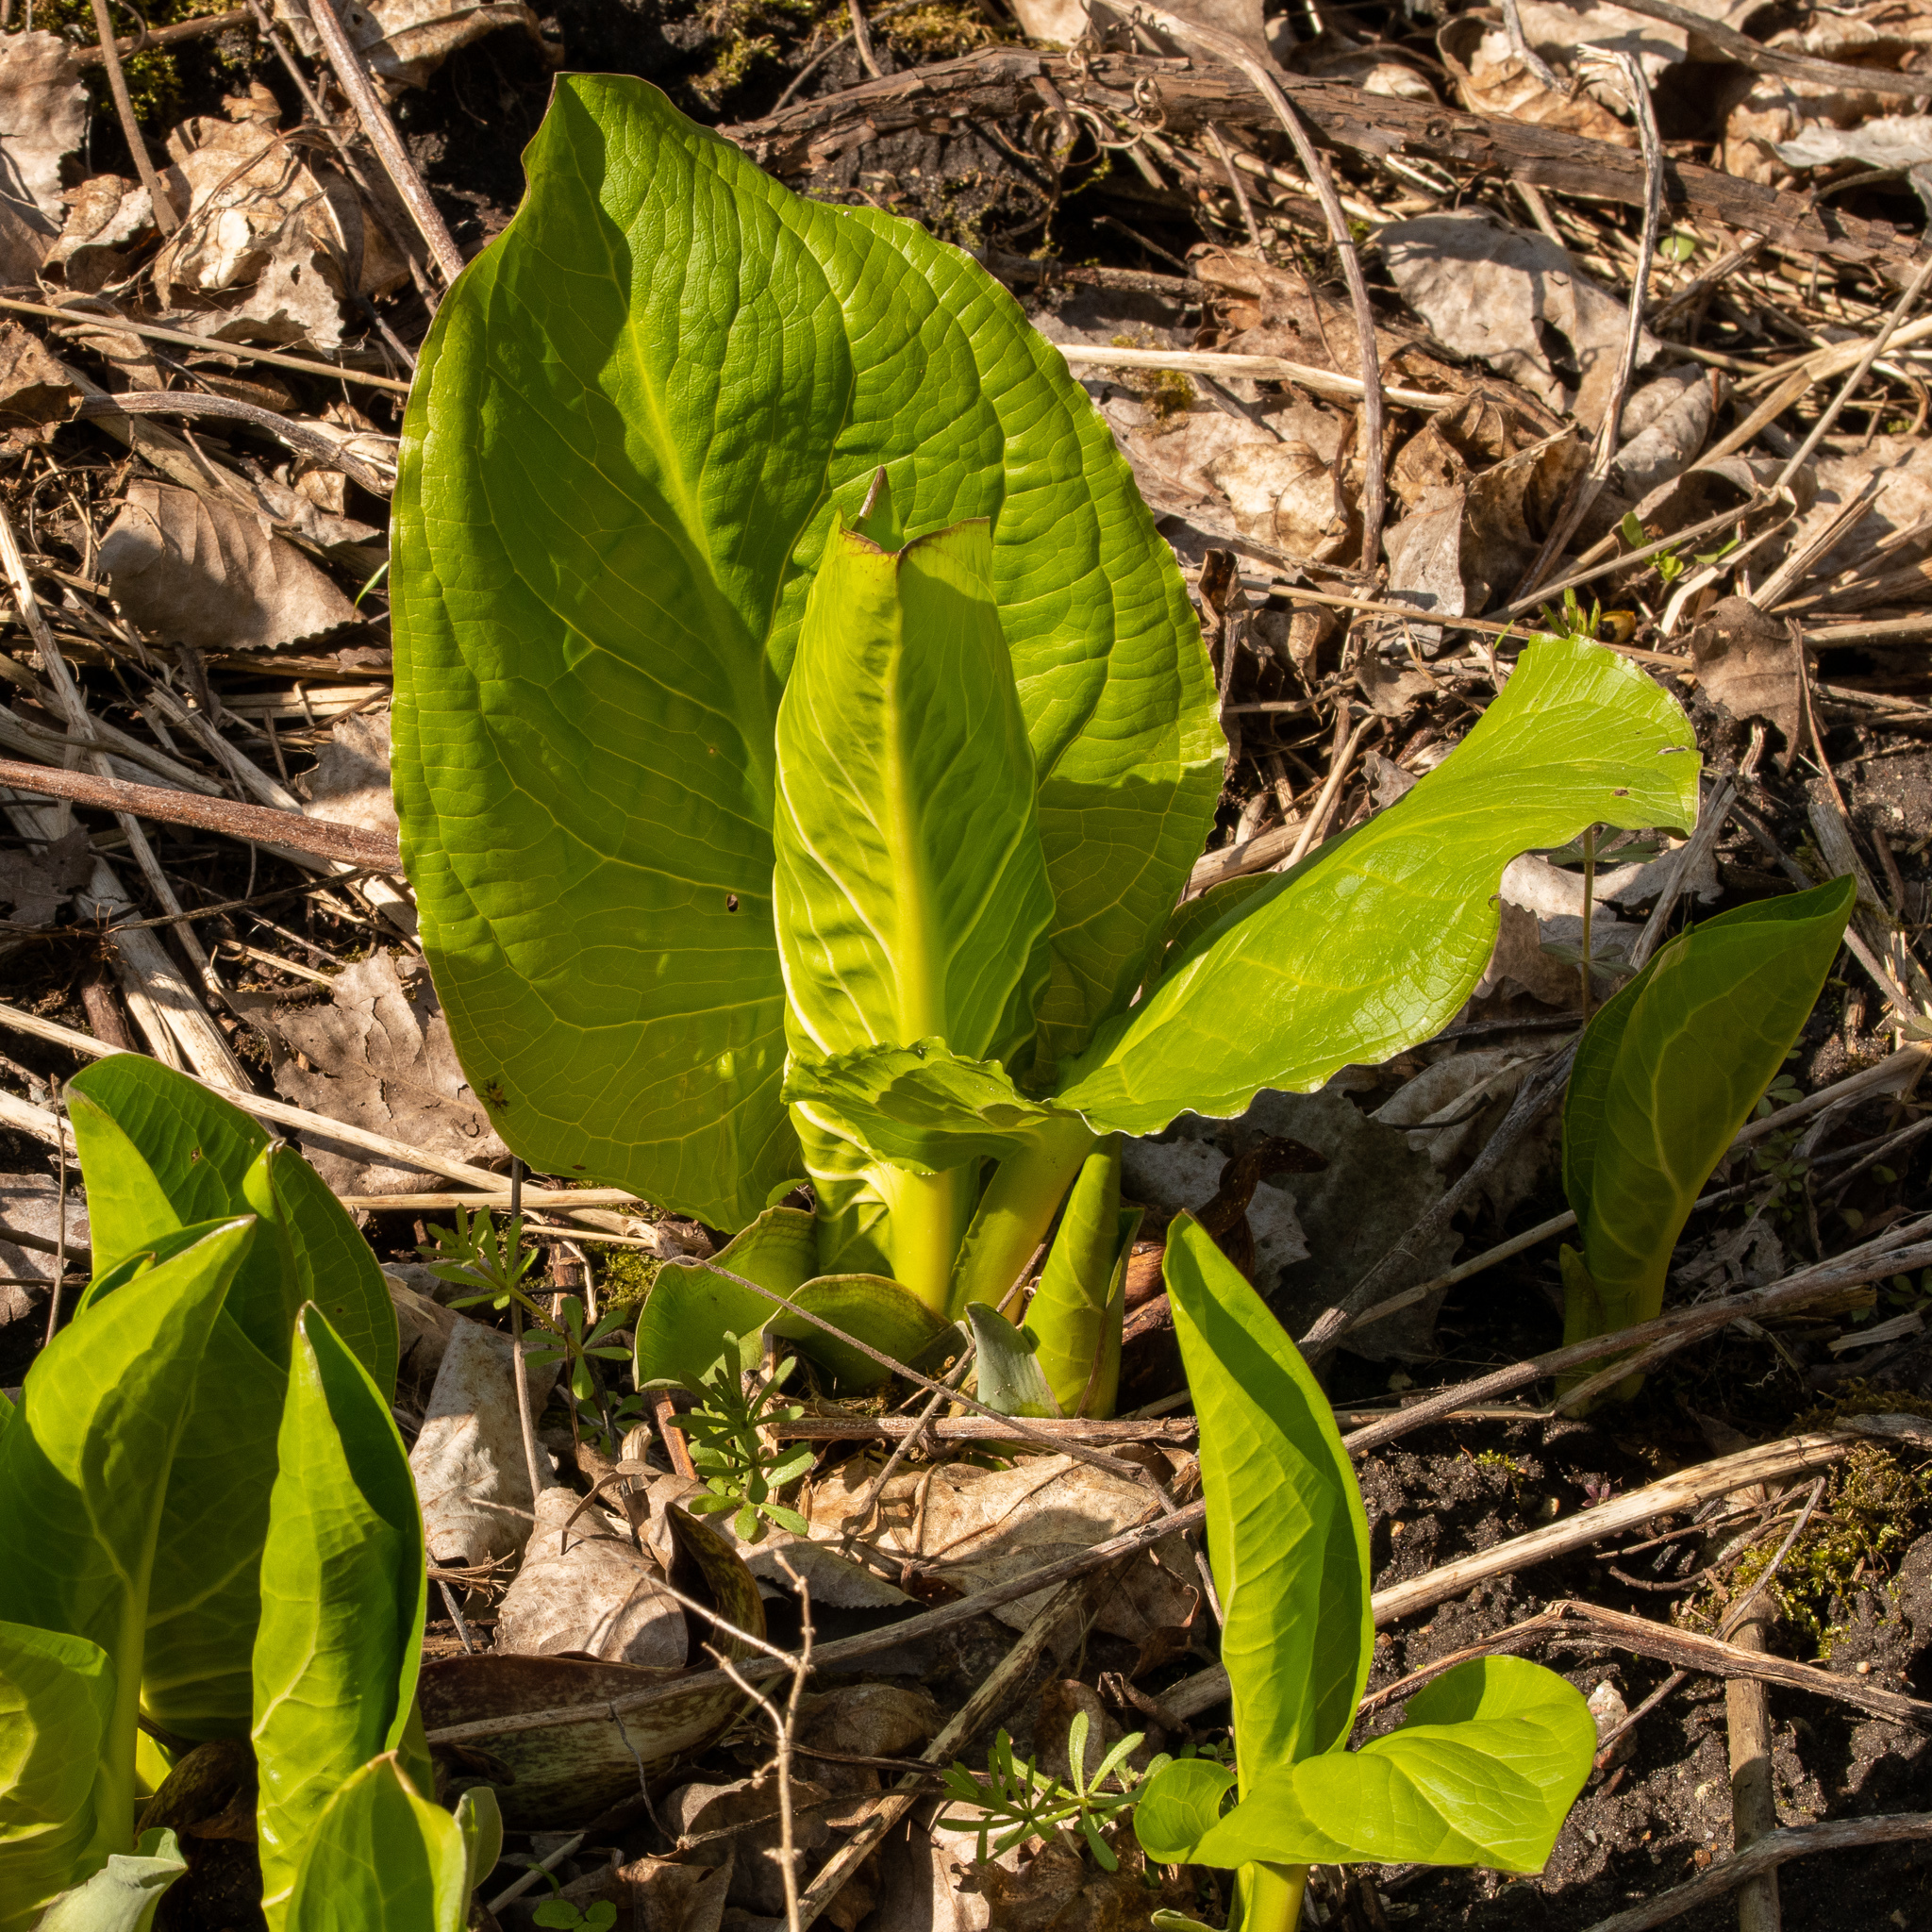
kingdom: Plantae
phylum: Tracheophyta
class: Liliopsida
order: Alismatales
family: Araceae
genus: Symplocarpus
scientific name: Symplocarpus foetidus
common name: Eastern skunk cabbage
